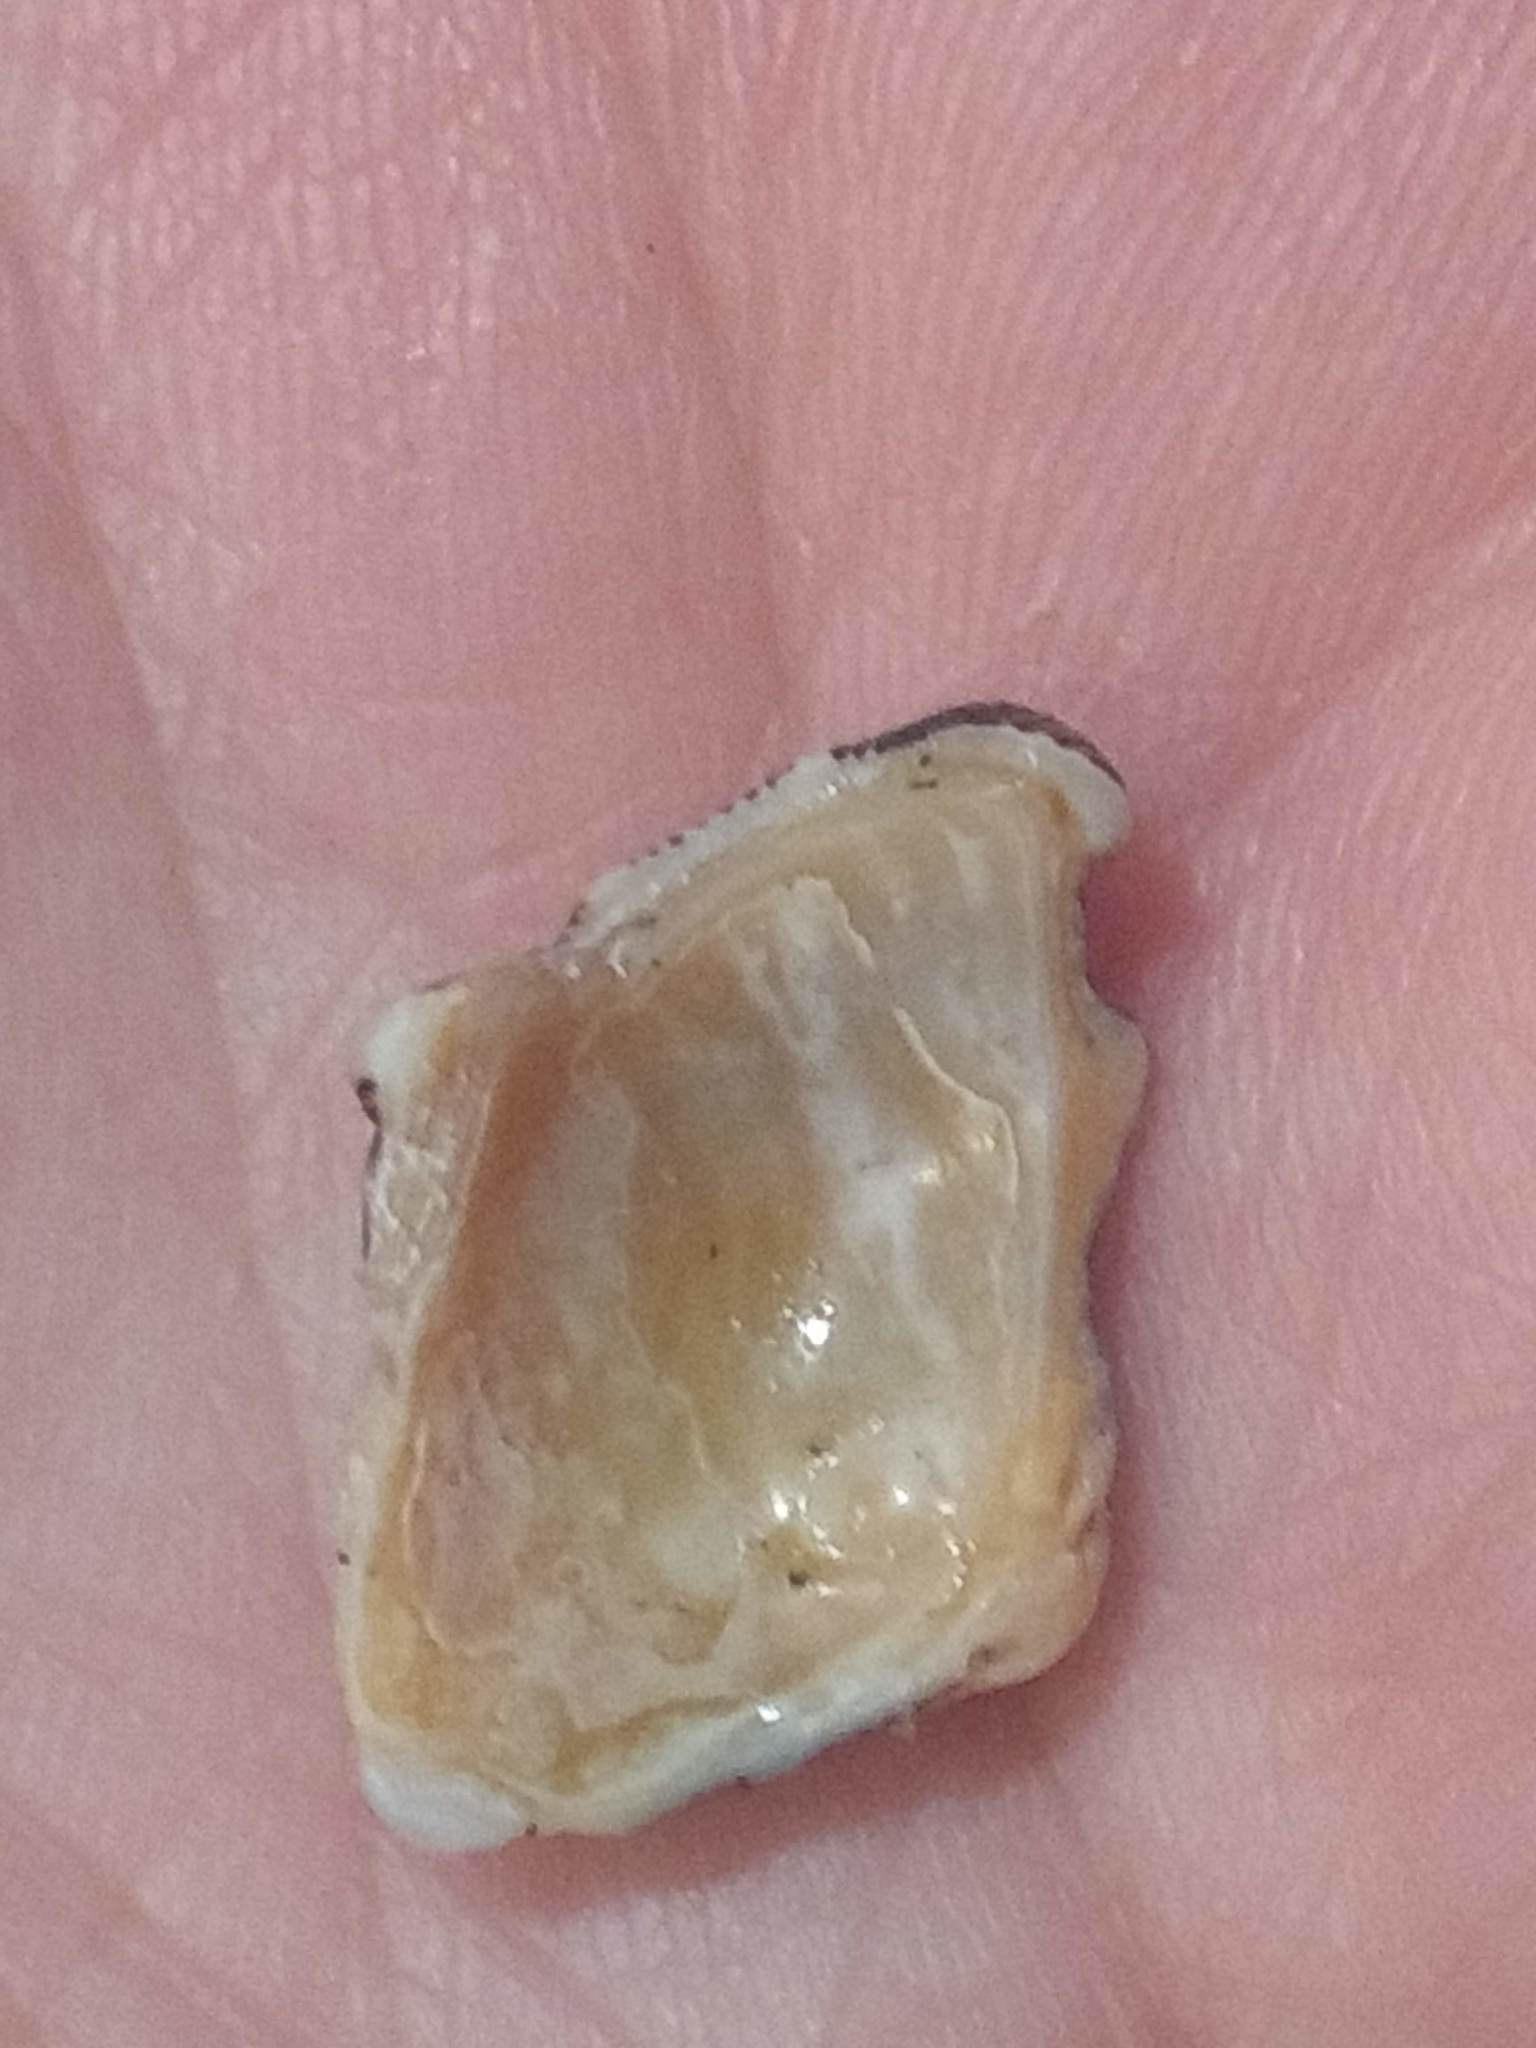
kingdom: Animalia
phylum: Mollusca
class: Gastropoda
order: Neogastropoda
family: Muricidae
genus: Roperia
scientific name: Roperia poulsoni
